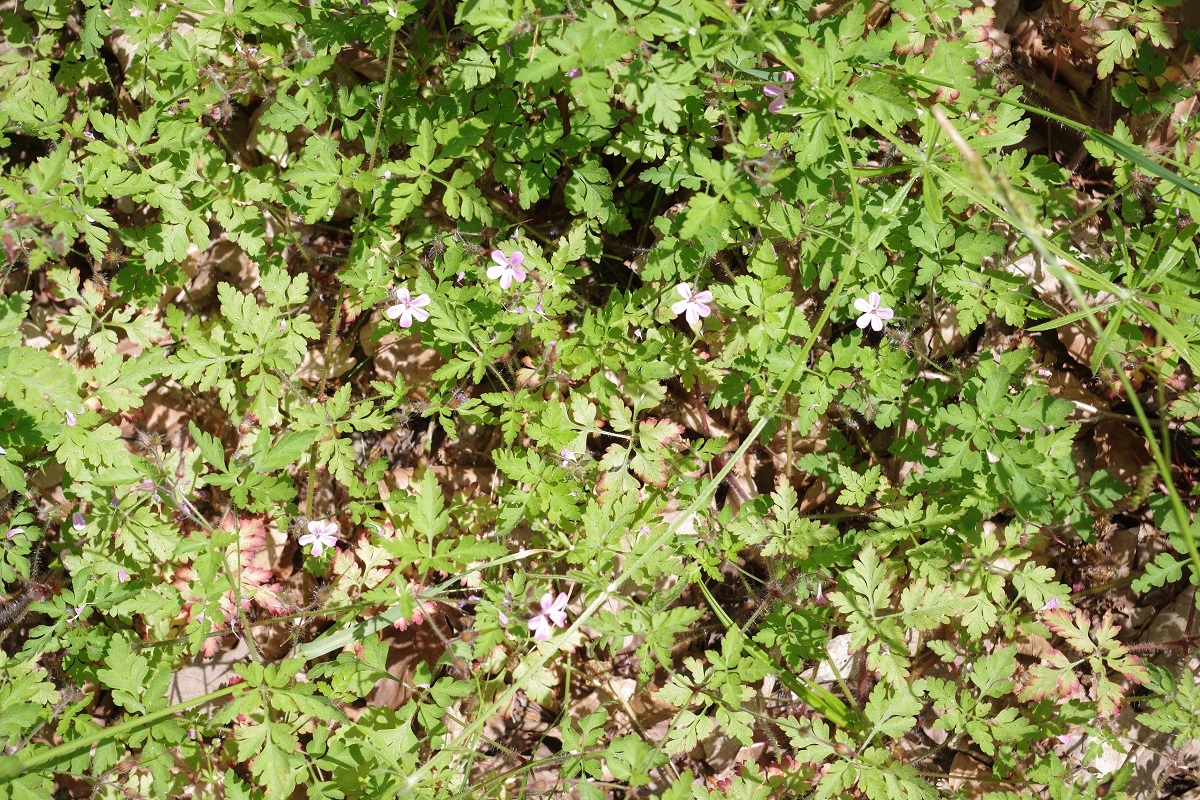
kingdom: Plantae
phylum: Tracheophyta
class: Magnoliopsida
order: Geraniales
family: Geraniaceae
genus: Geranium
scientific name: Geranium robertianum
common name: Herb-robert
